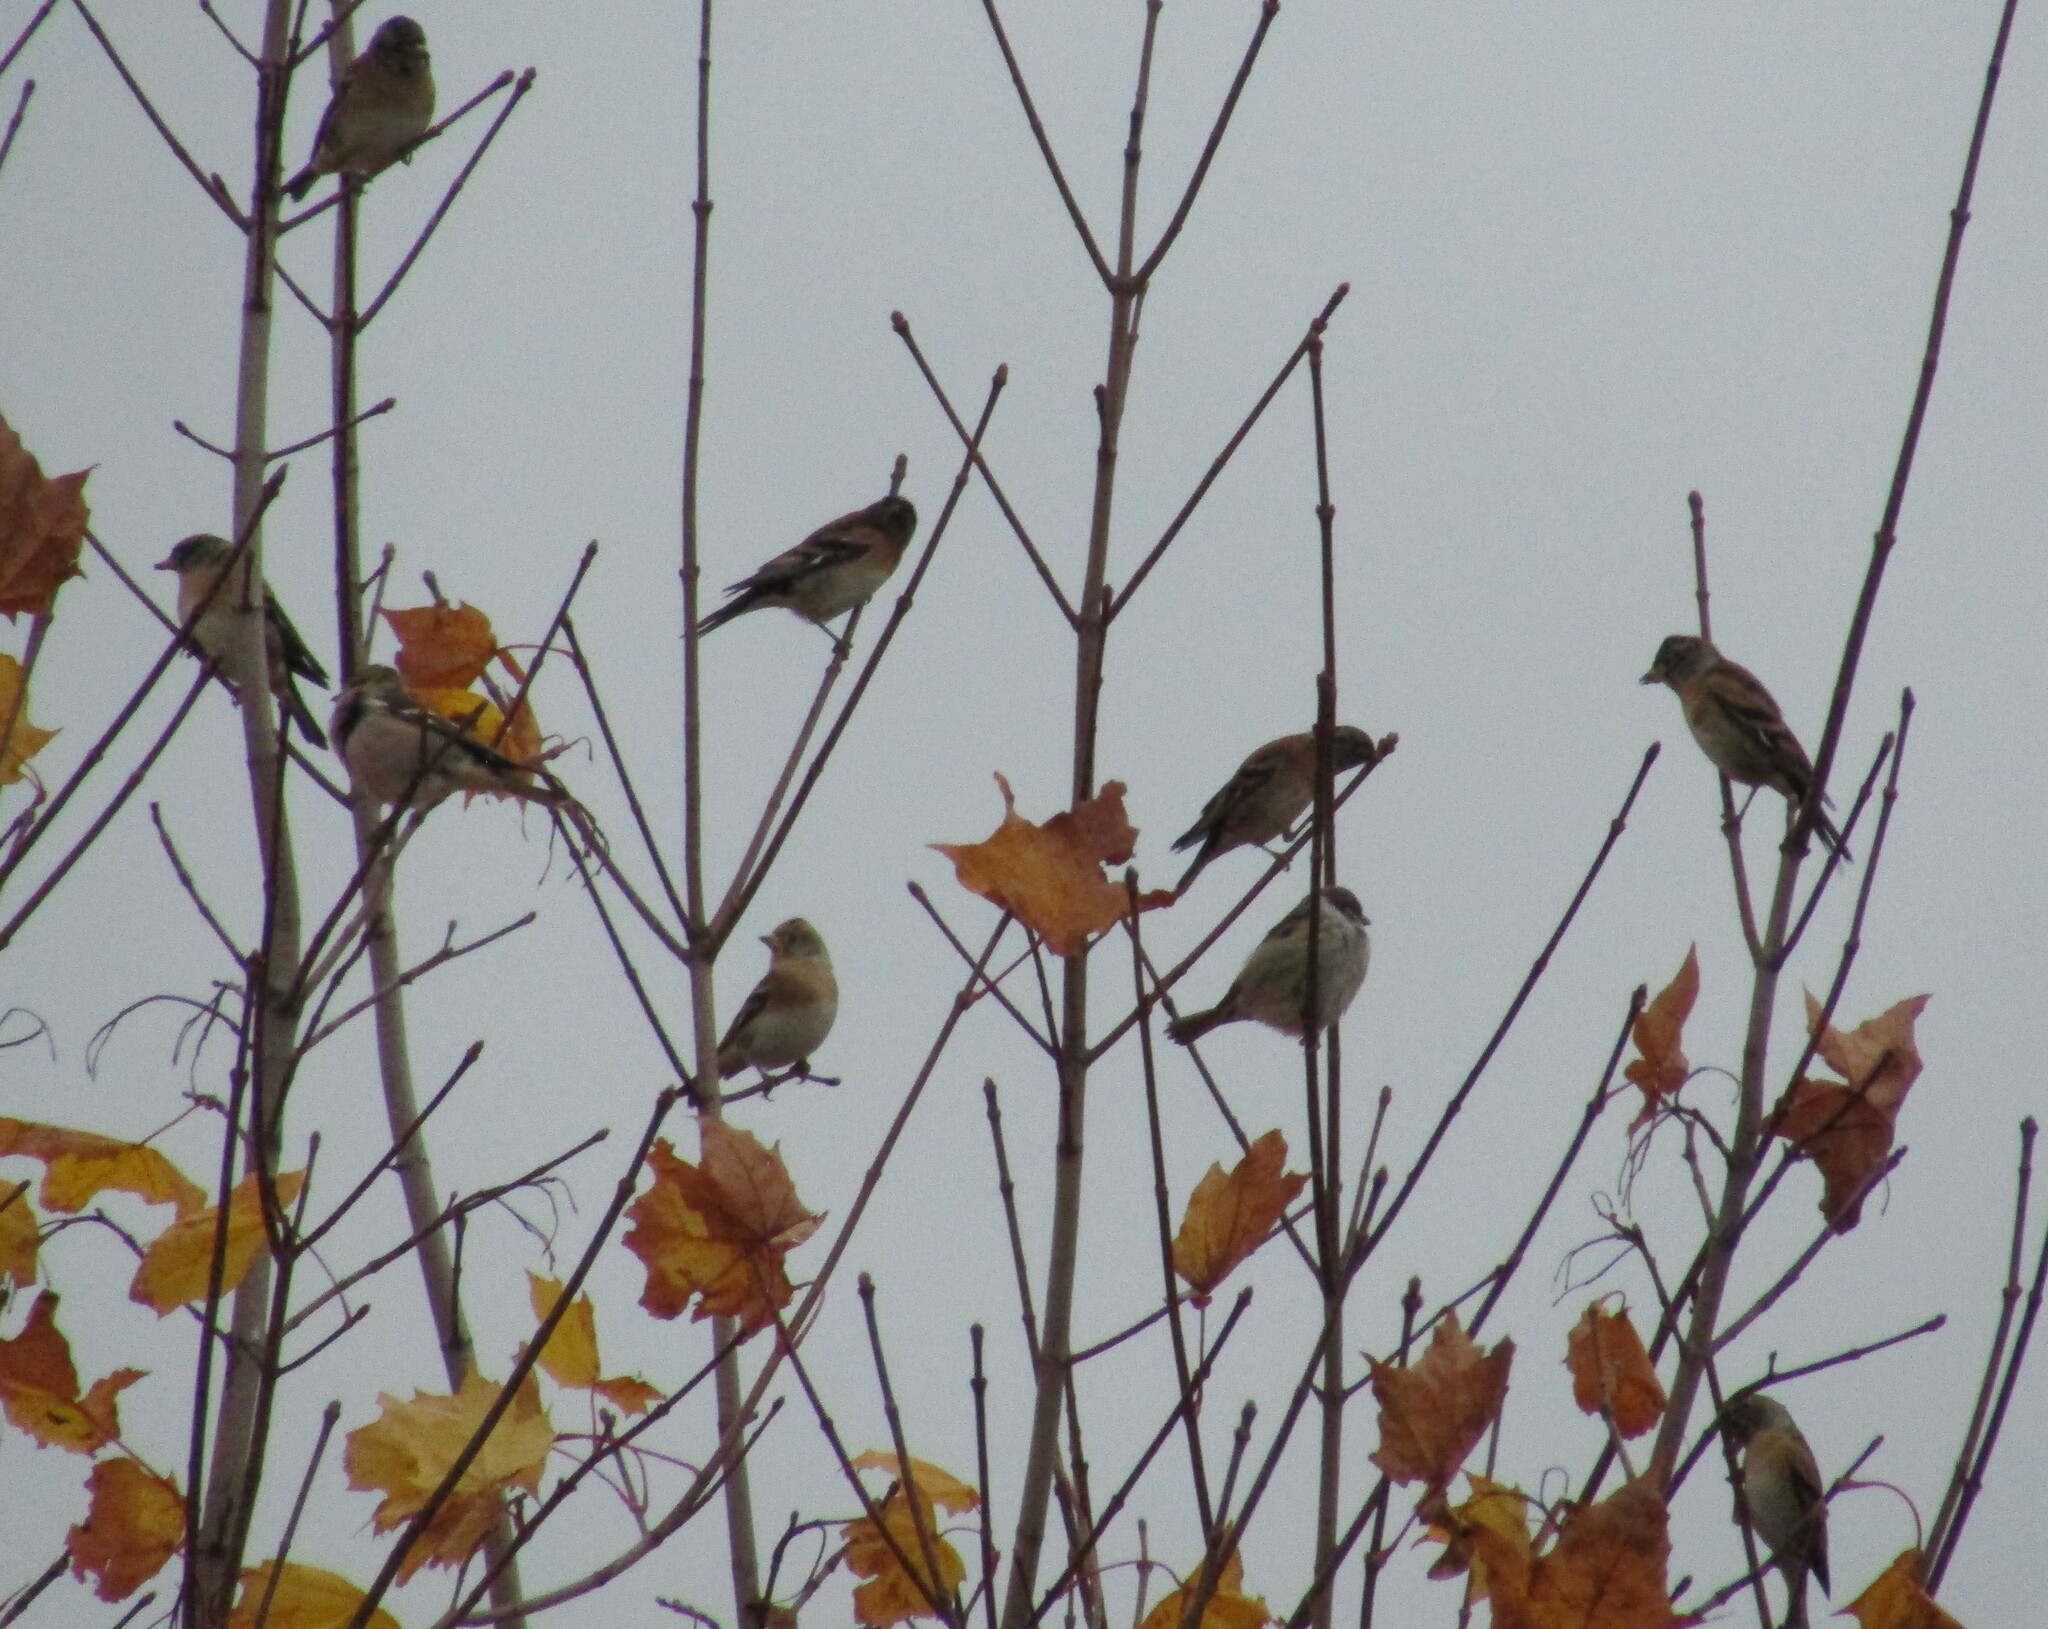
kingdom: Animalia
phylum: Chordata
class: Aves
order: Passeriformes
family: Fringillidae
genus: Fringilla
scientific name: Fringilla montifringilla
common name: Brambling
